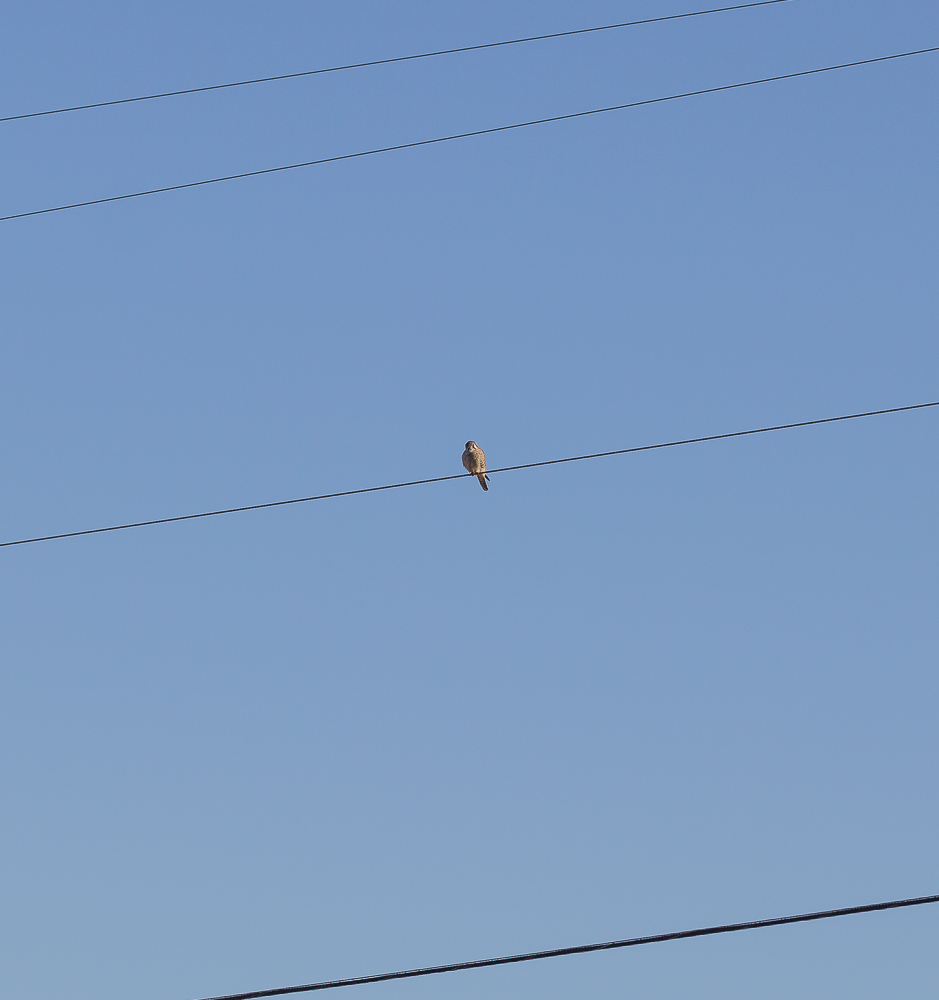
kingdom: Animalia
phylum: Chordata
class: Aves
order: Falconiformes
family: Falconidae
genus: Falco
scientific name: Falco sparverius
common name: American kestrel
